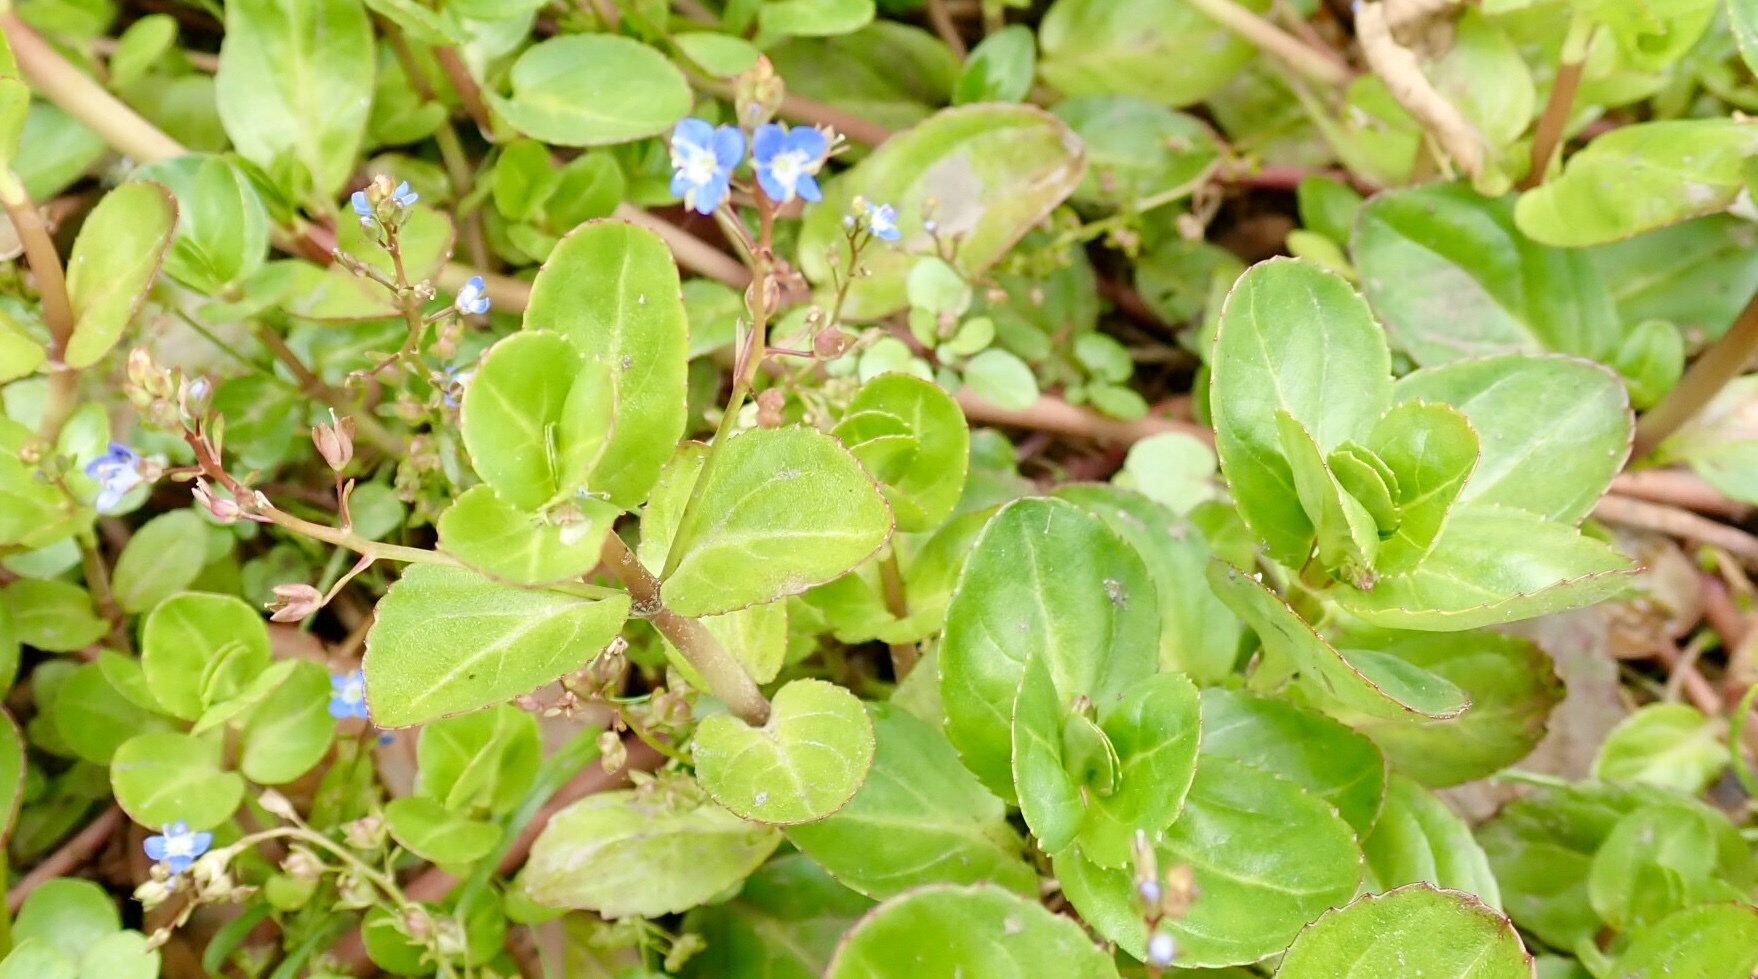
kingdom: Plantae
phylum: Tracheophyta
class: Magnoliopsida
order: Lamiales
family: Plantaginaceae
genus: Veronica
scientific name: Veronica beccabunga
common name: Brooklime
